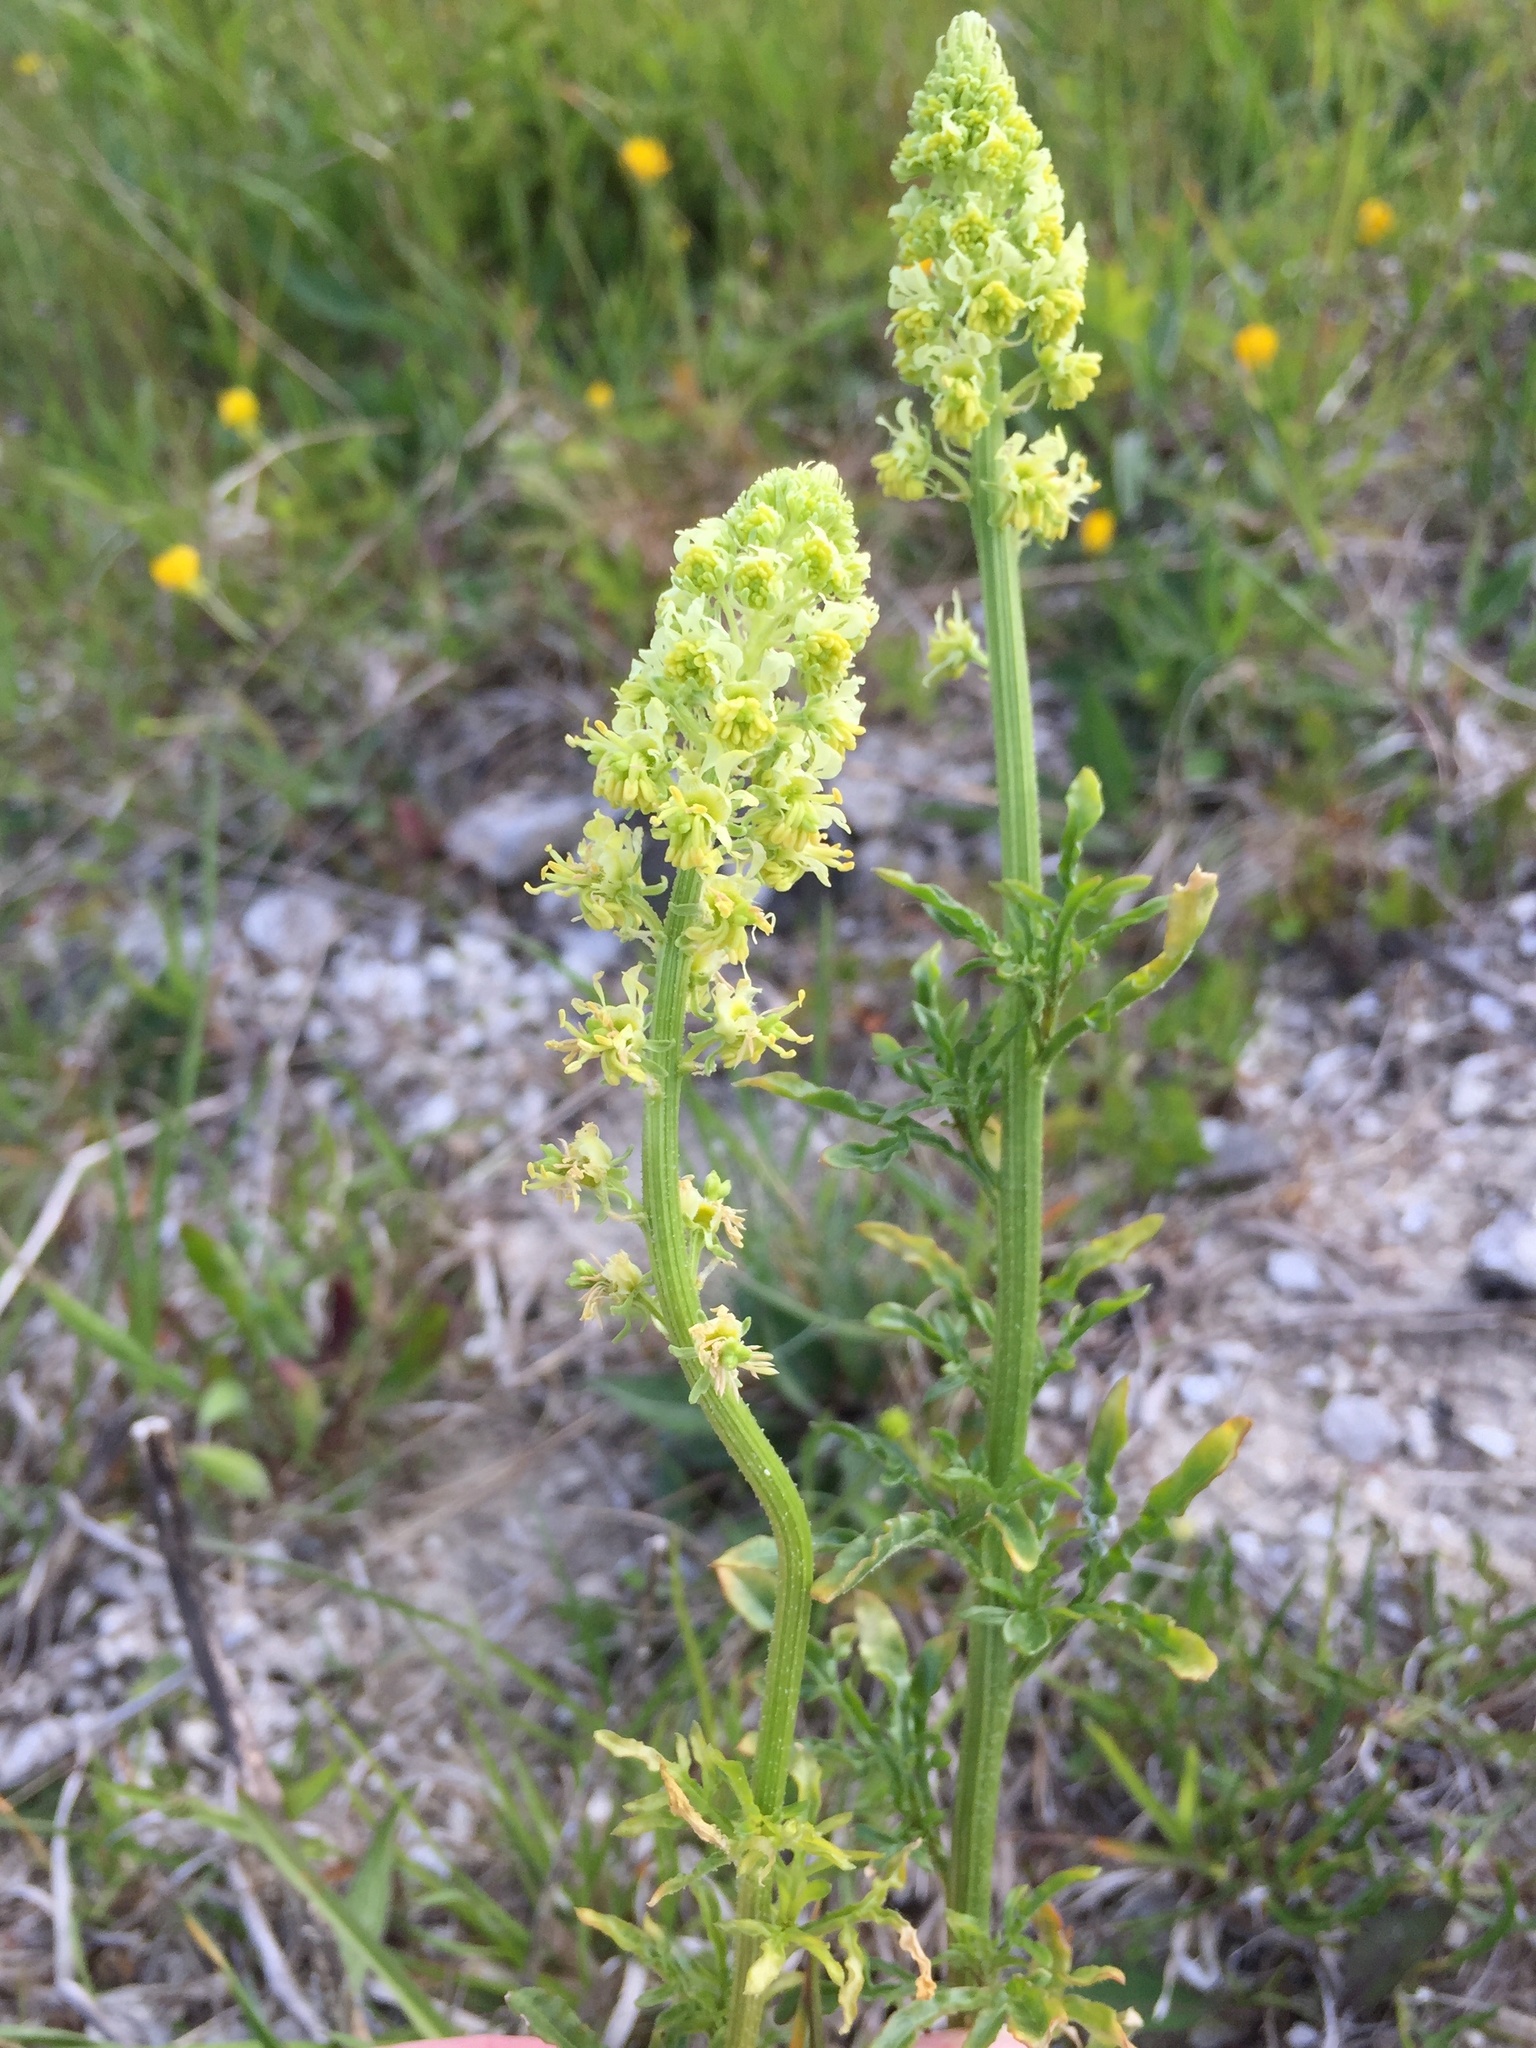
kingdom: Plantae
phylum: Tracheophyta
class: Magnoliopsida
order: Brassicales
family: Resedaceae
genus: Reseda
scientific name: Reseda lutea
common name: Wild mignonette
